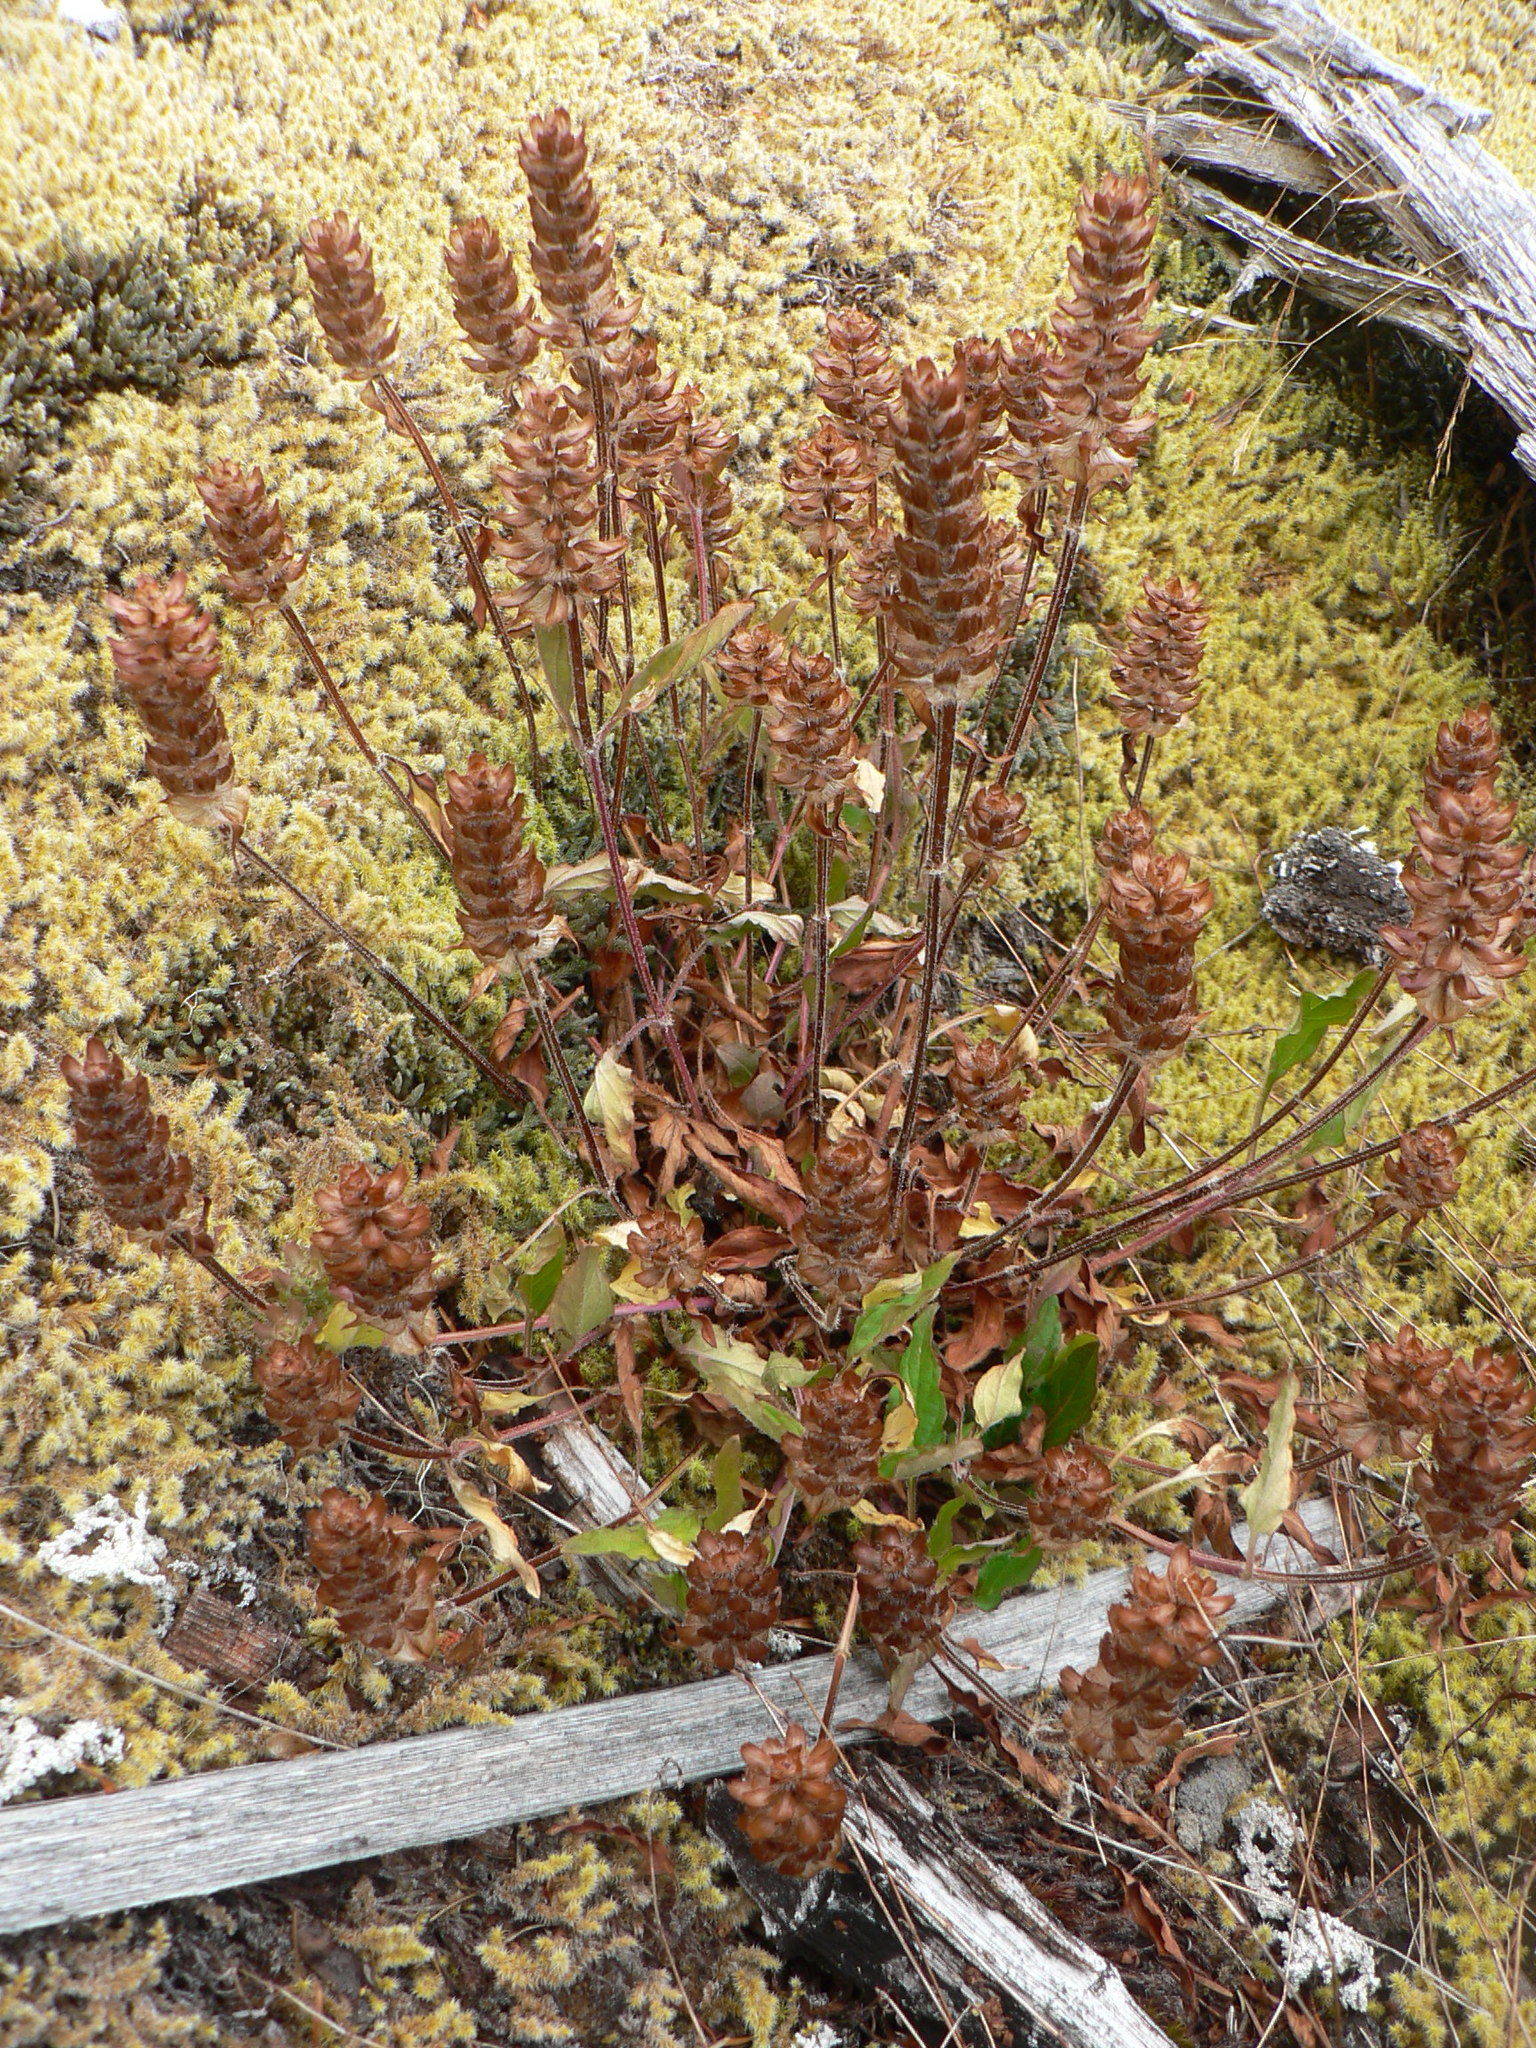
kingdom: Plantae
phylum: Tracheophyta
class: Magnoliopsida
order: Lamiales
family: Lamiaceae
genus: Prunella
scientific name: Prunella vulgaris
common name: Heal-all
